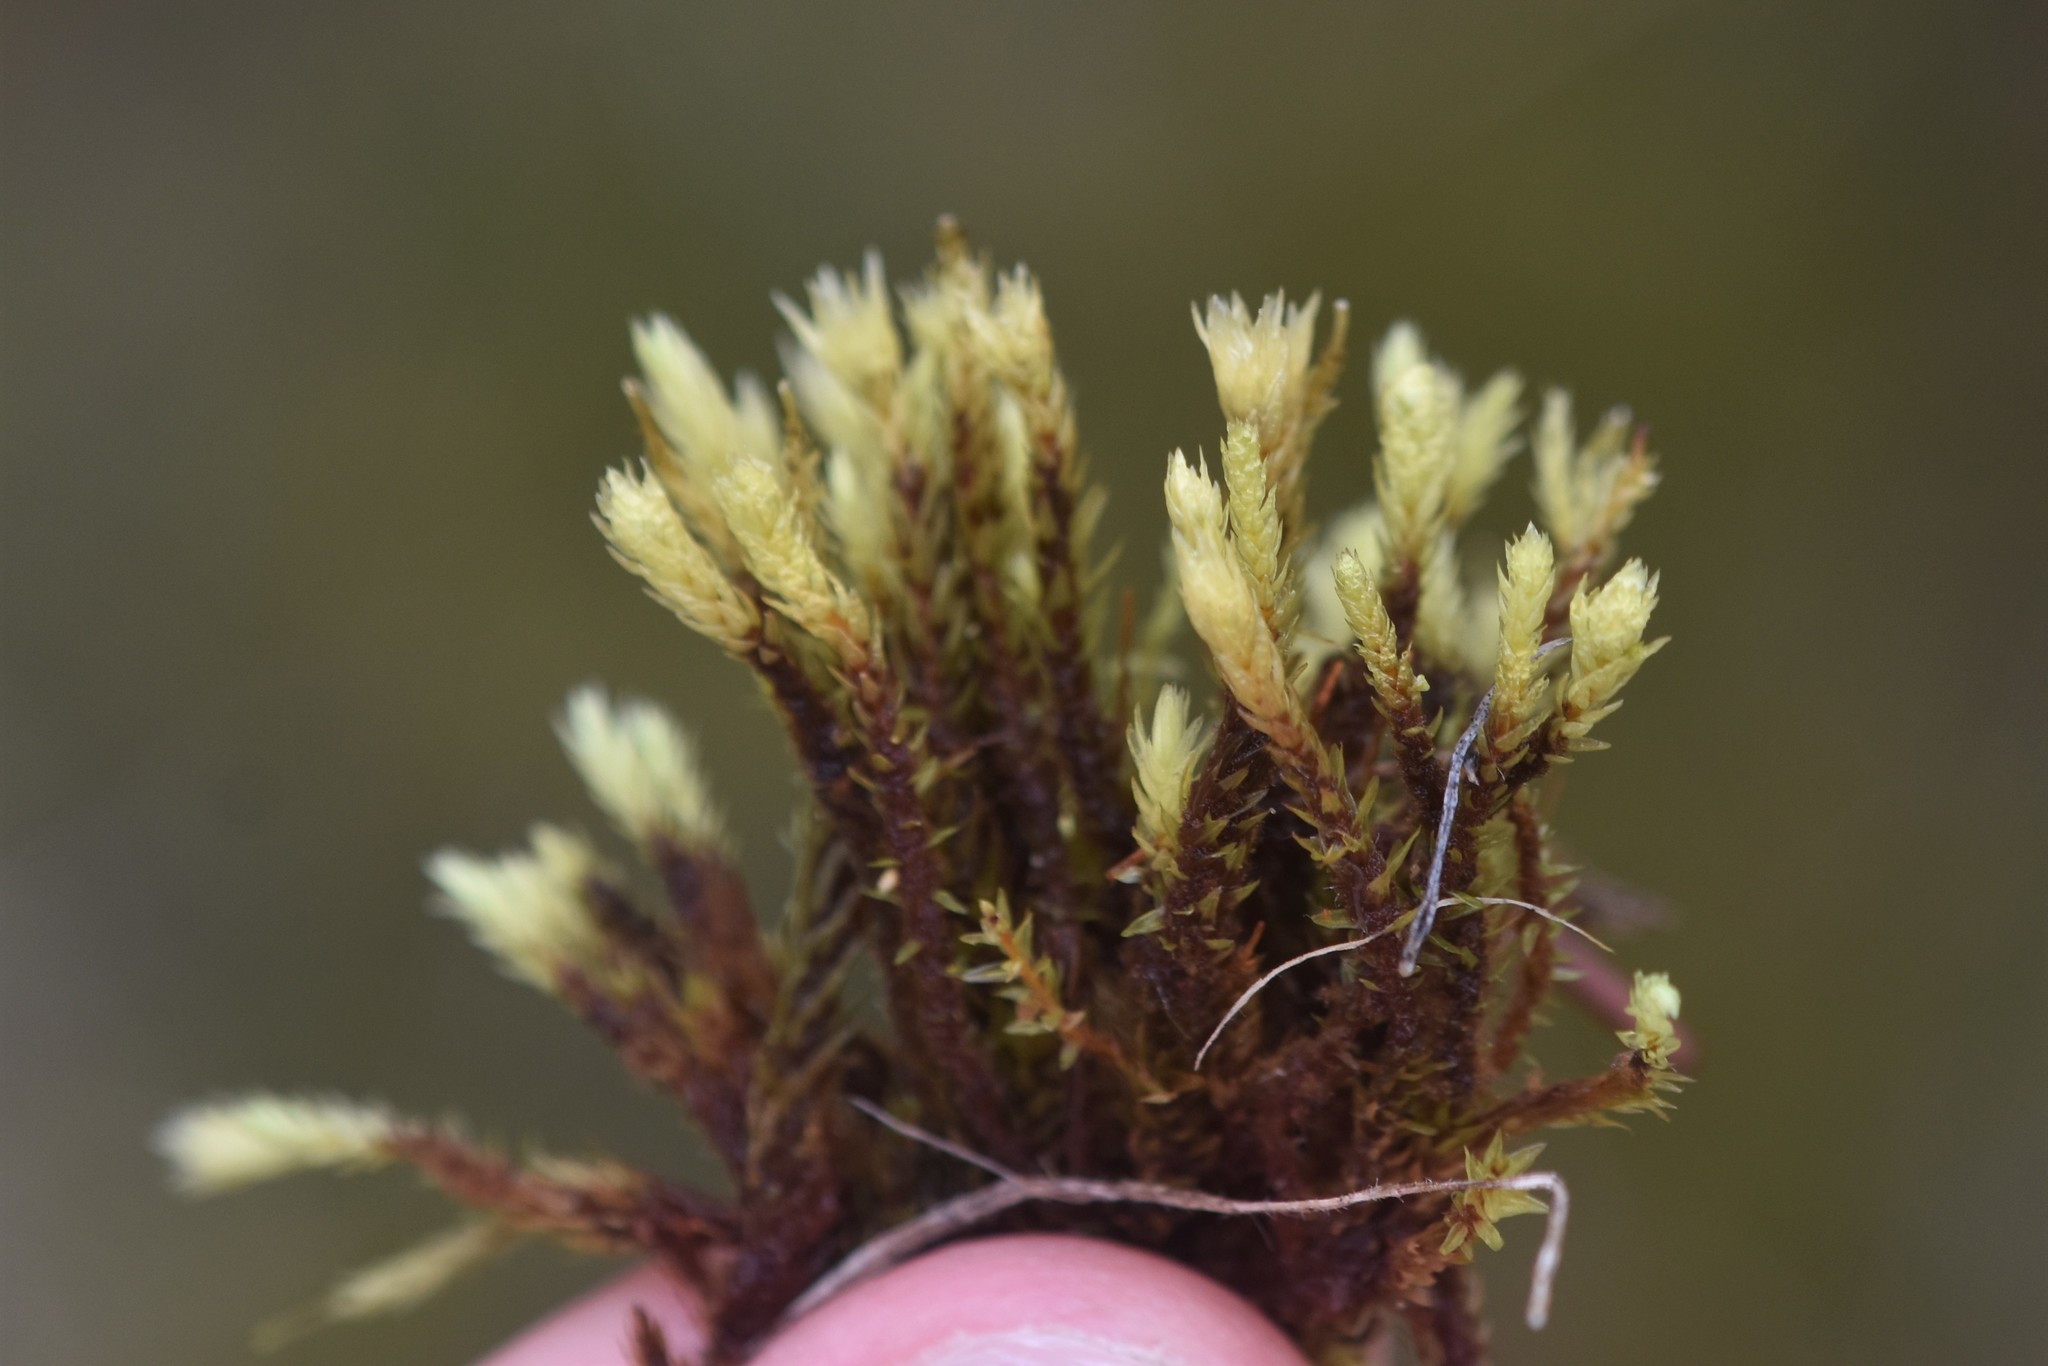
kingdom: Plantae
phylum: Bryophyta
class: Bryopsida
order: Aulacomniales
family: Aulacomniaceae
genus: Aulacomnium
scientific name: Aulacomnium palustre
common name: Bog groove-moss
